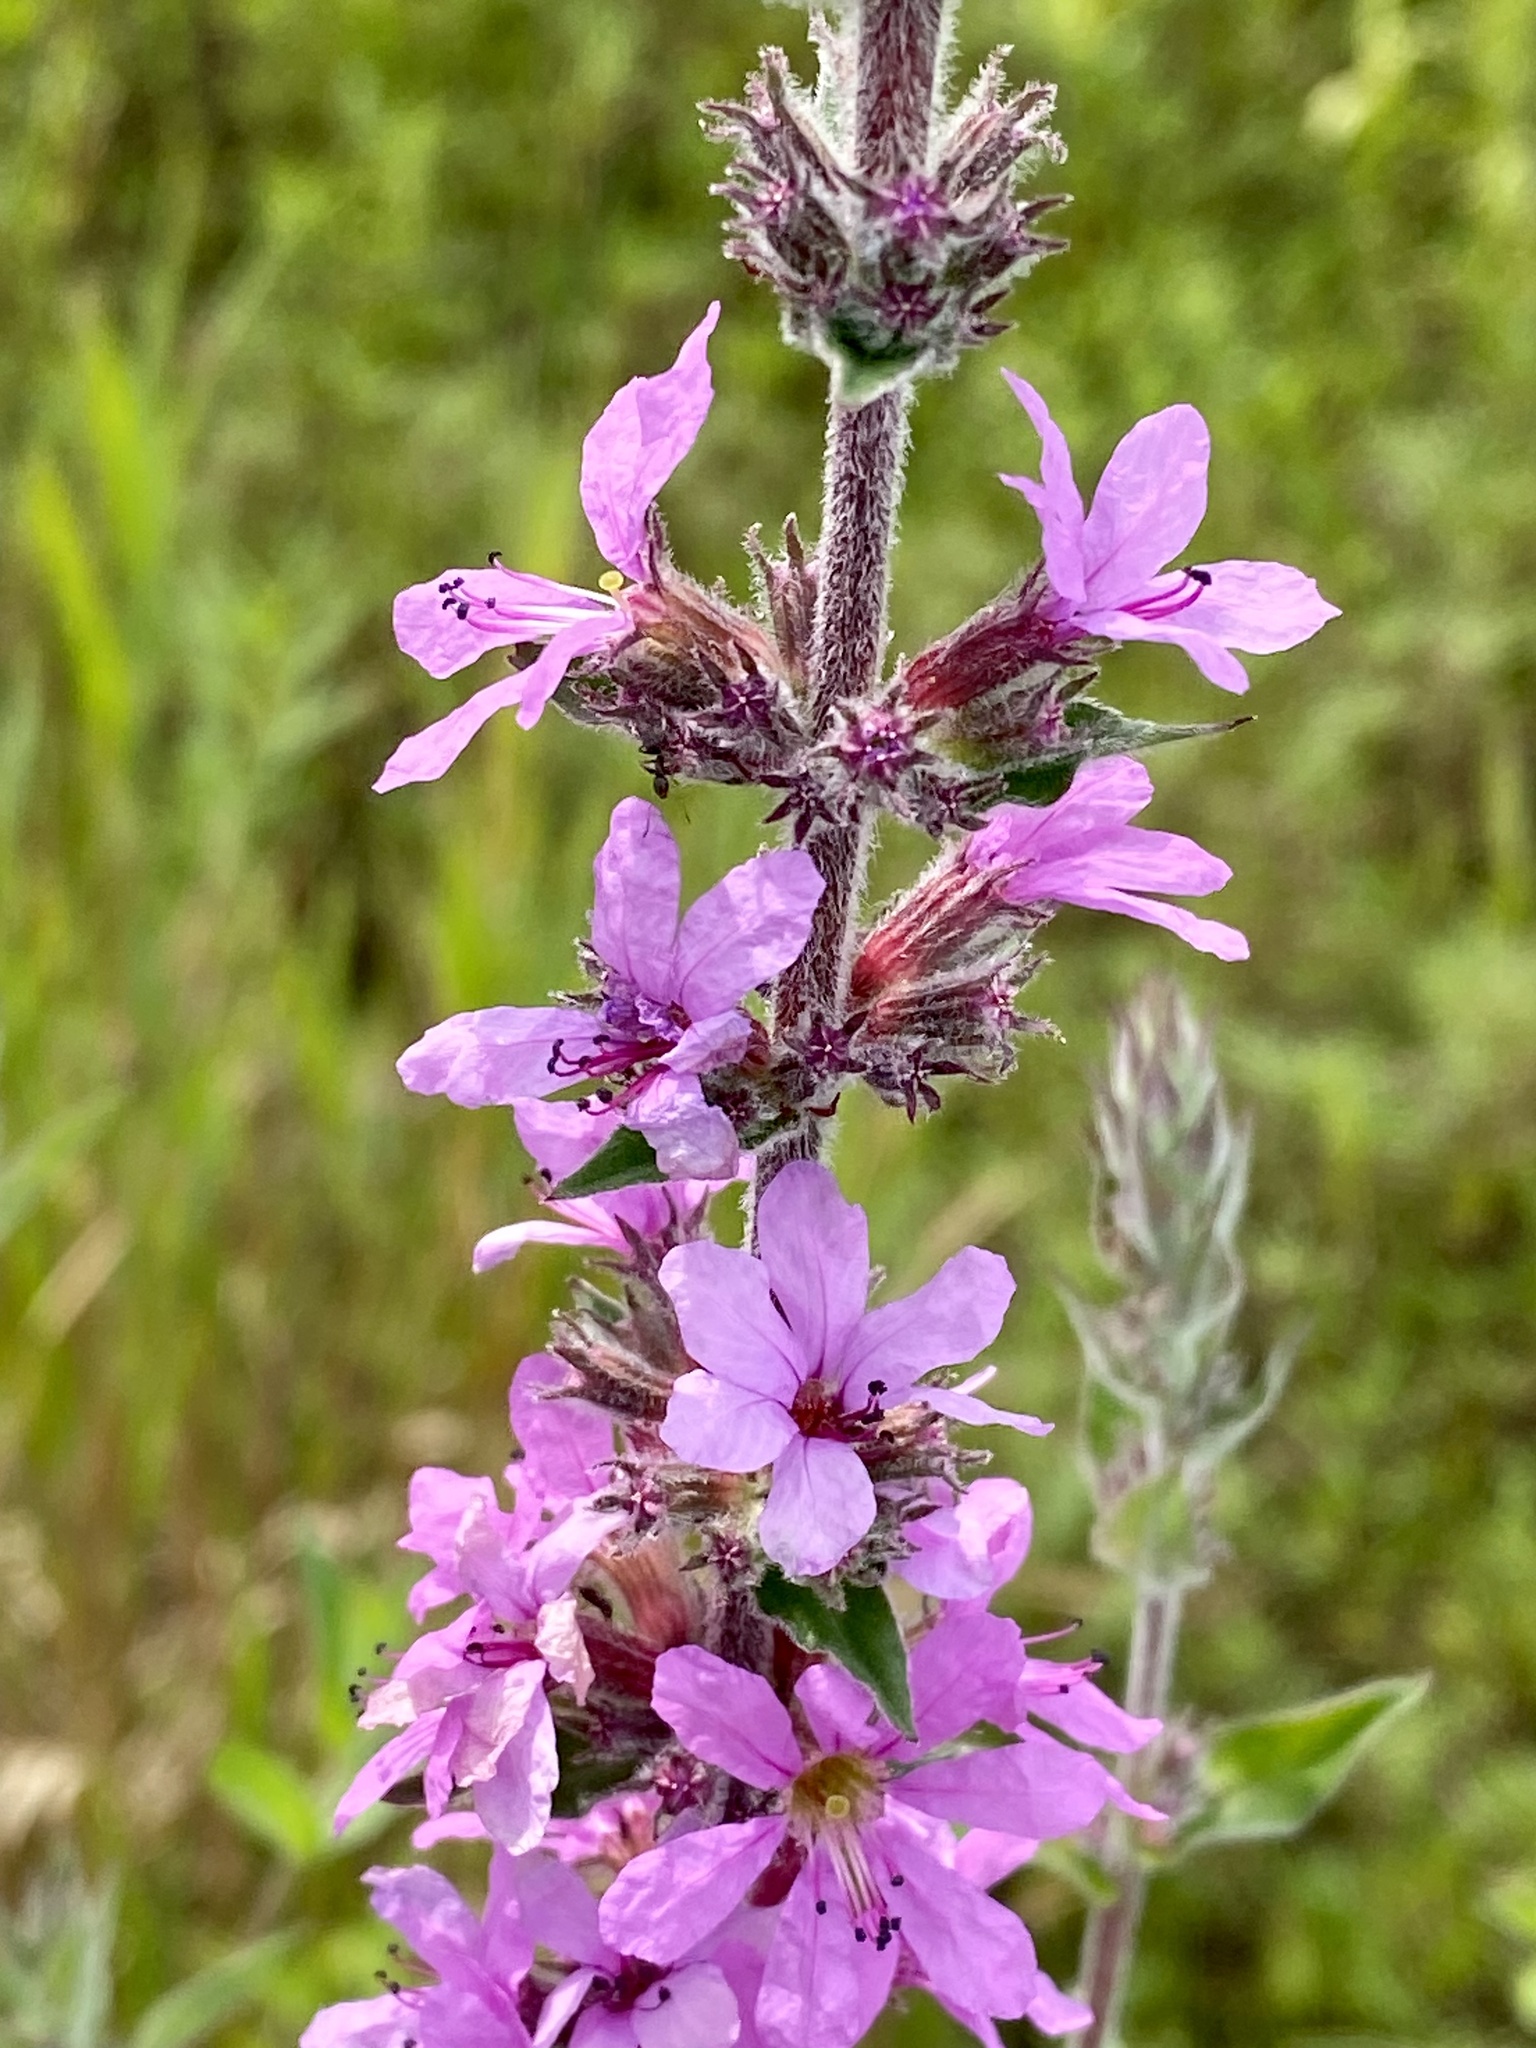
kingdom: Plantae
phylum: Tracheophyta
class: Magnoliopsida
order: Myrtales
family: Lythraceae
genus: Lythrum
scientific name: Lythrum salicaria
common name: Purple loosestrife
